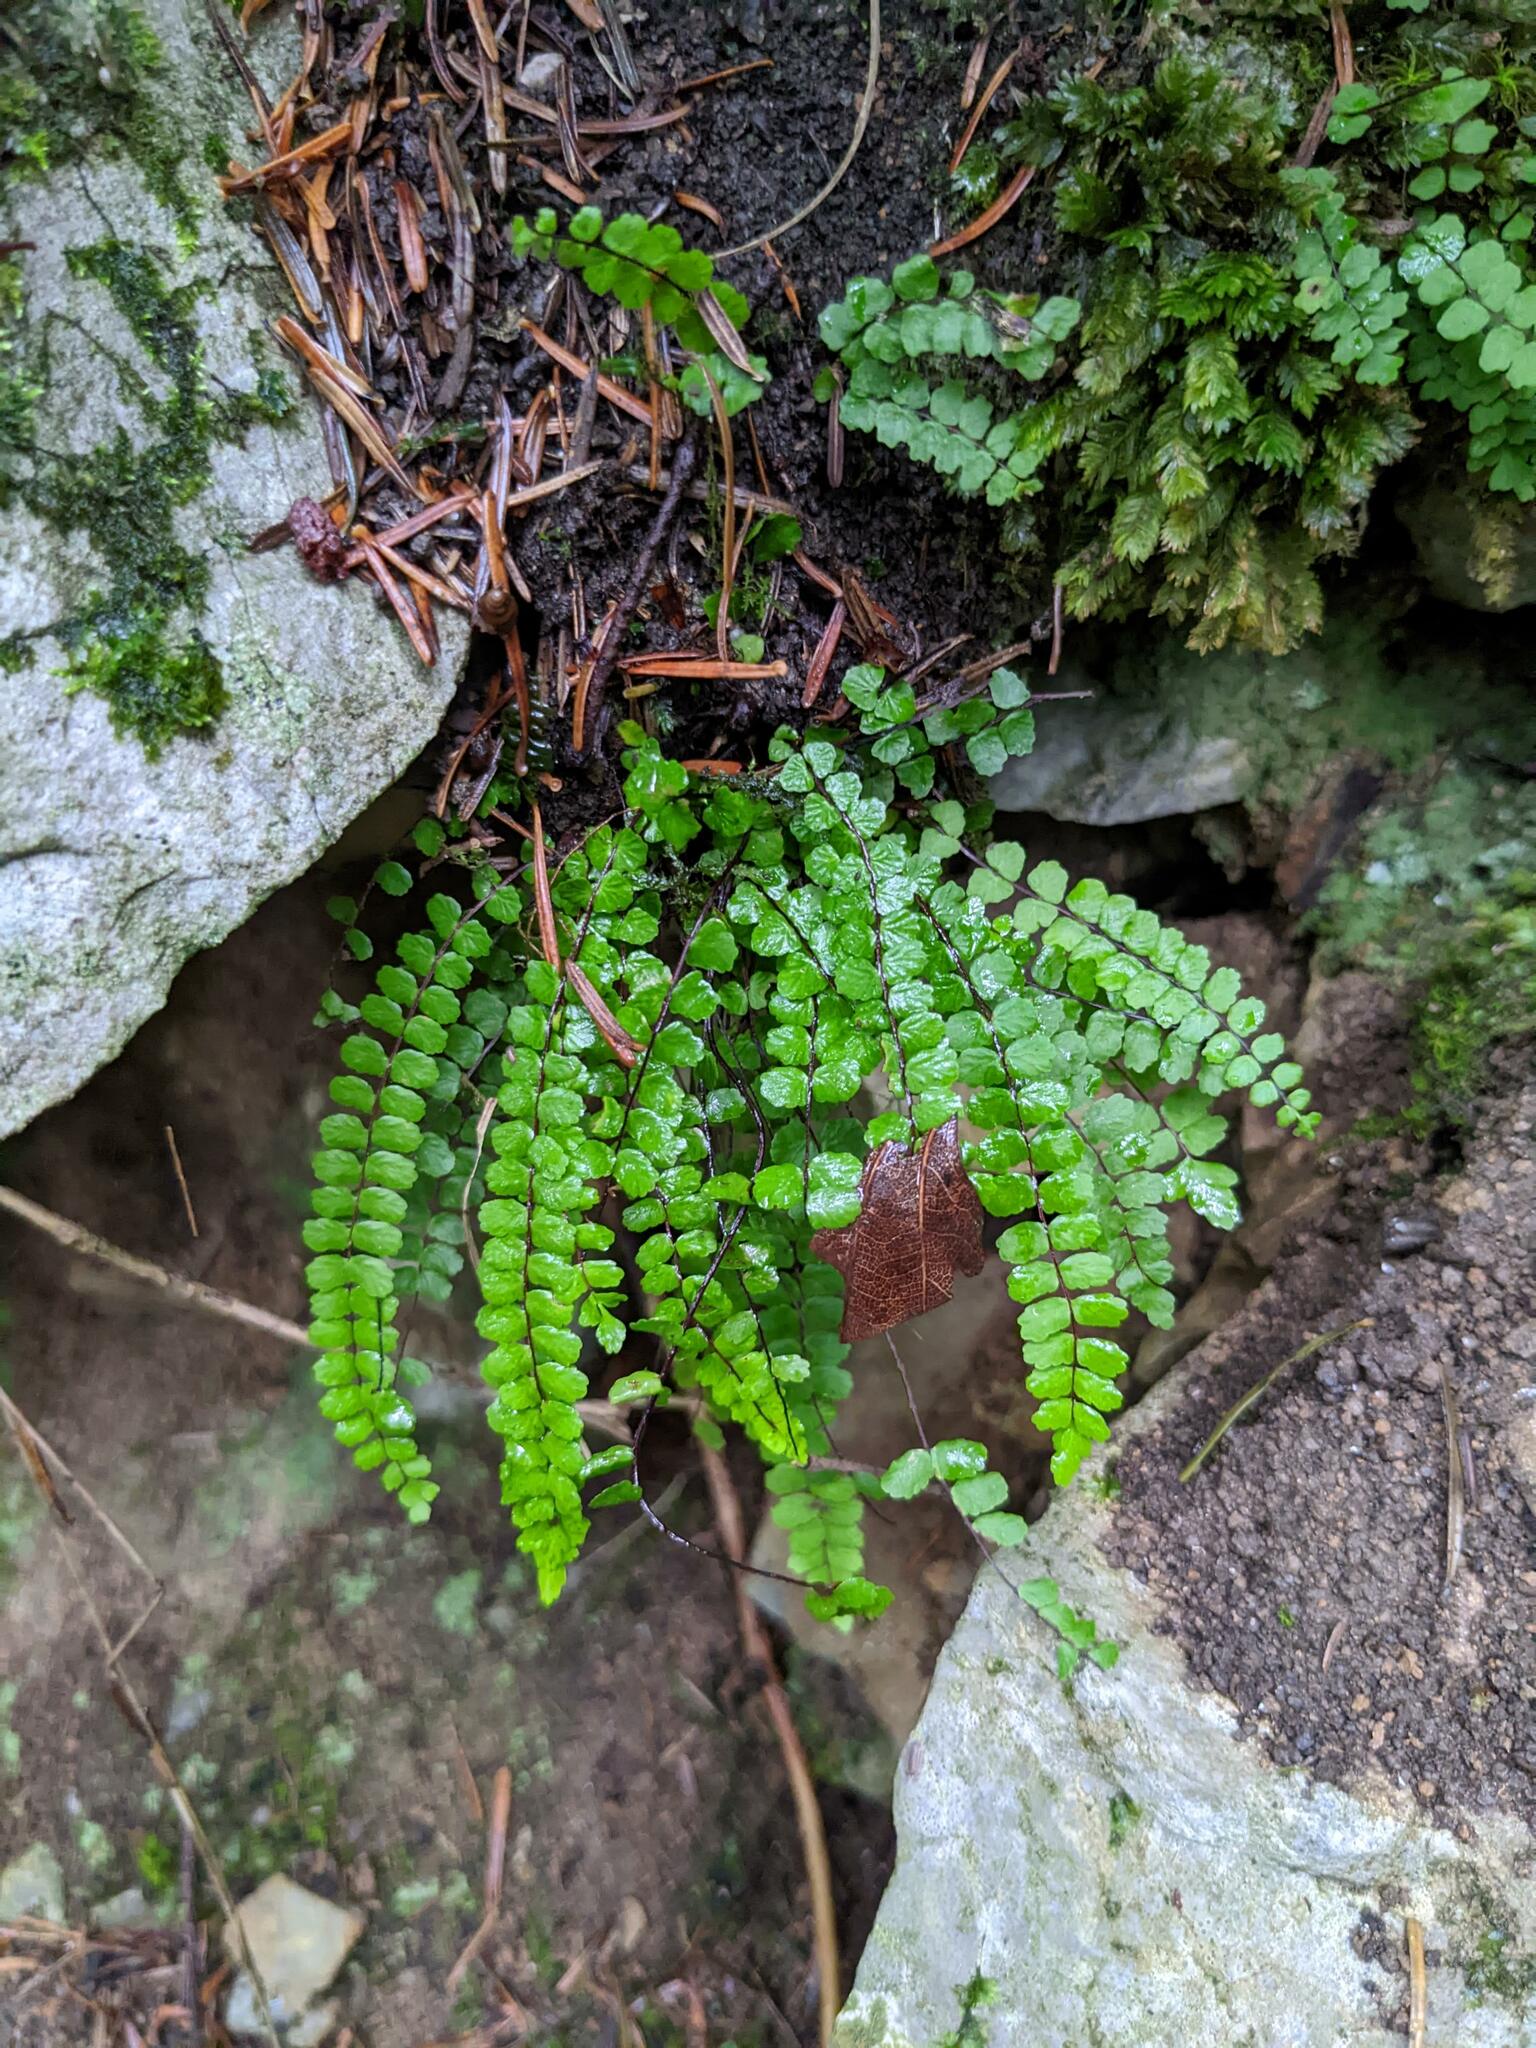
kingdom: Plantae
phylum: Tracheophyta
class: Polypodiopsida
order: Polypodiales
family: Aspleniaceae
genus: Asplenium
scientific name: Asplenium trichomanes
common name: Maidenhair spleenwort
